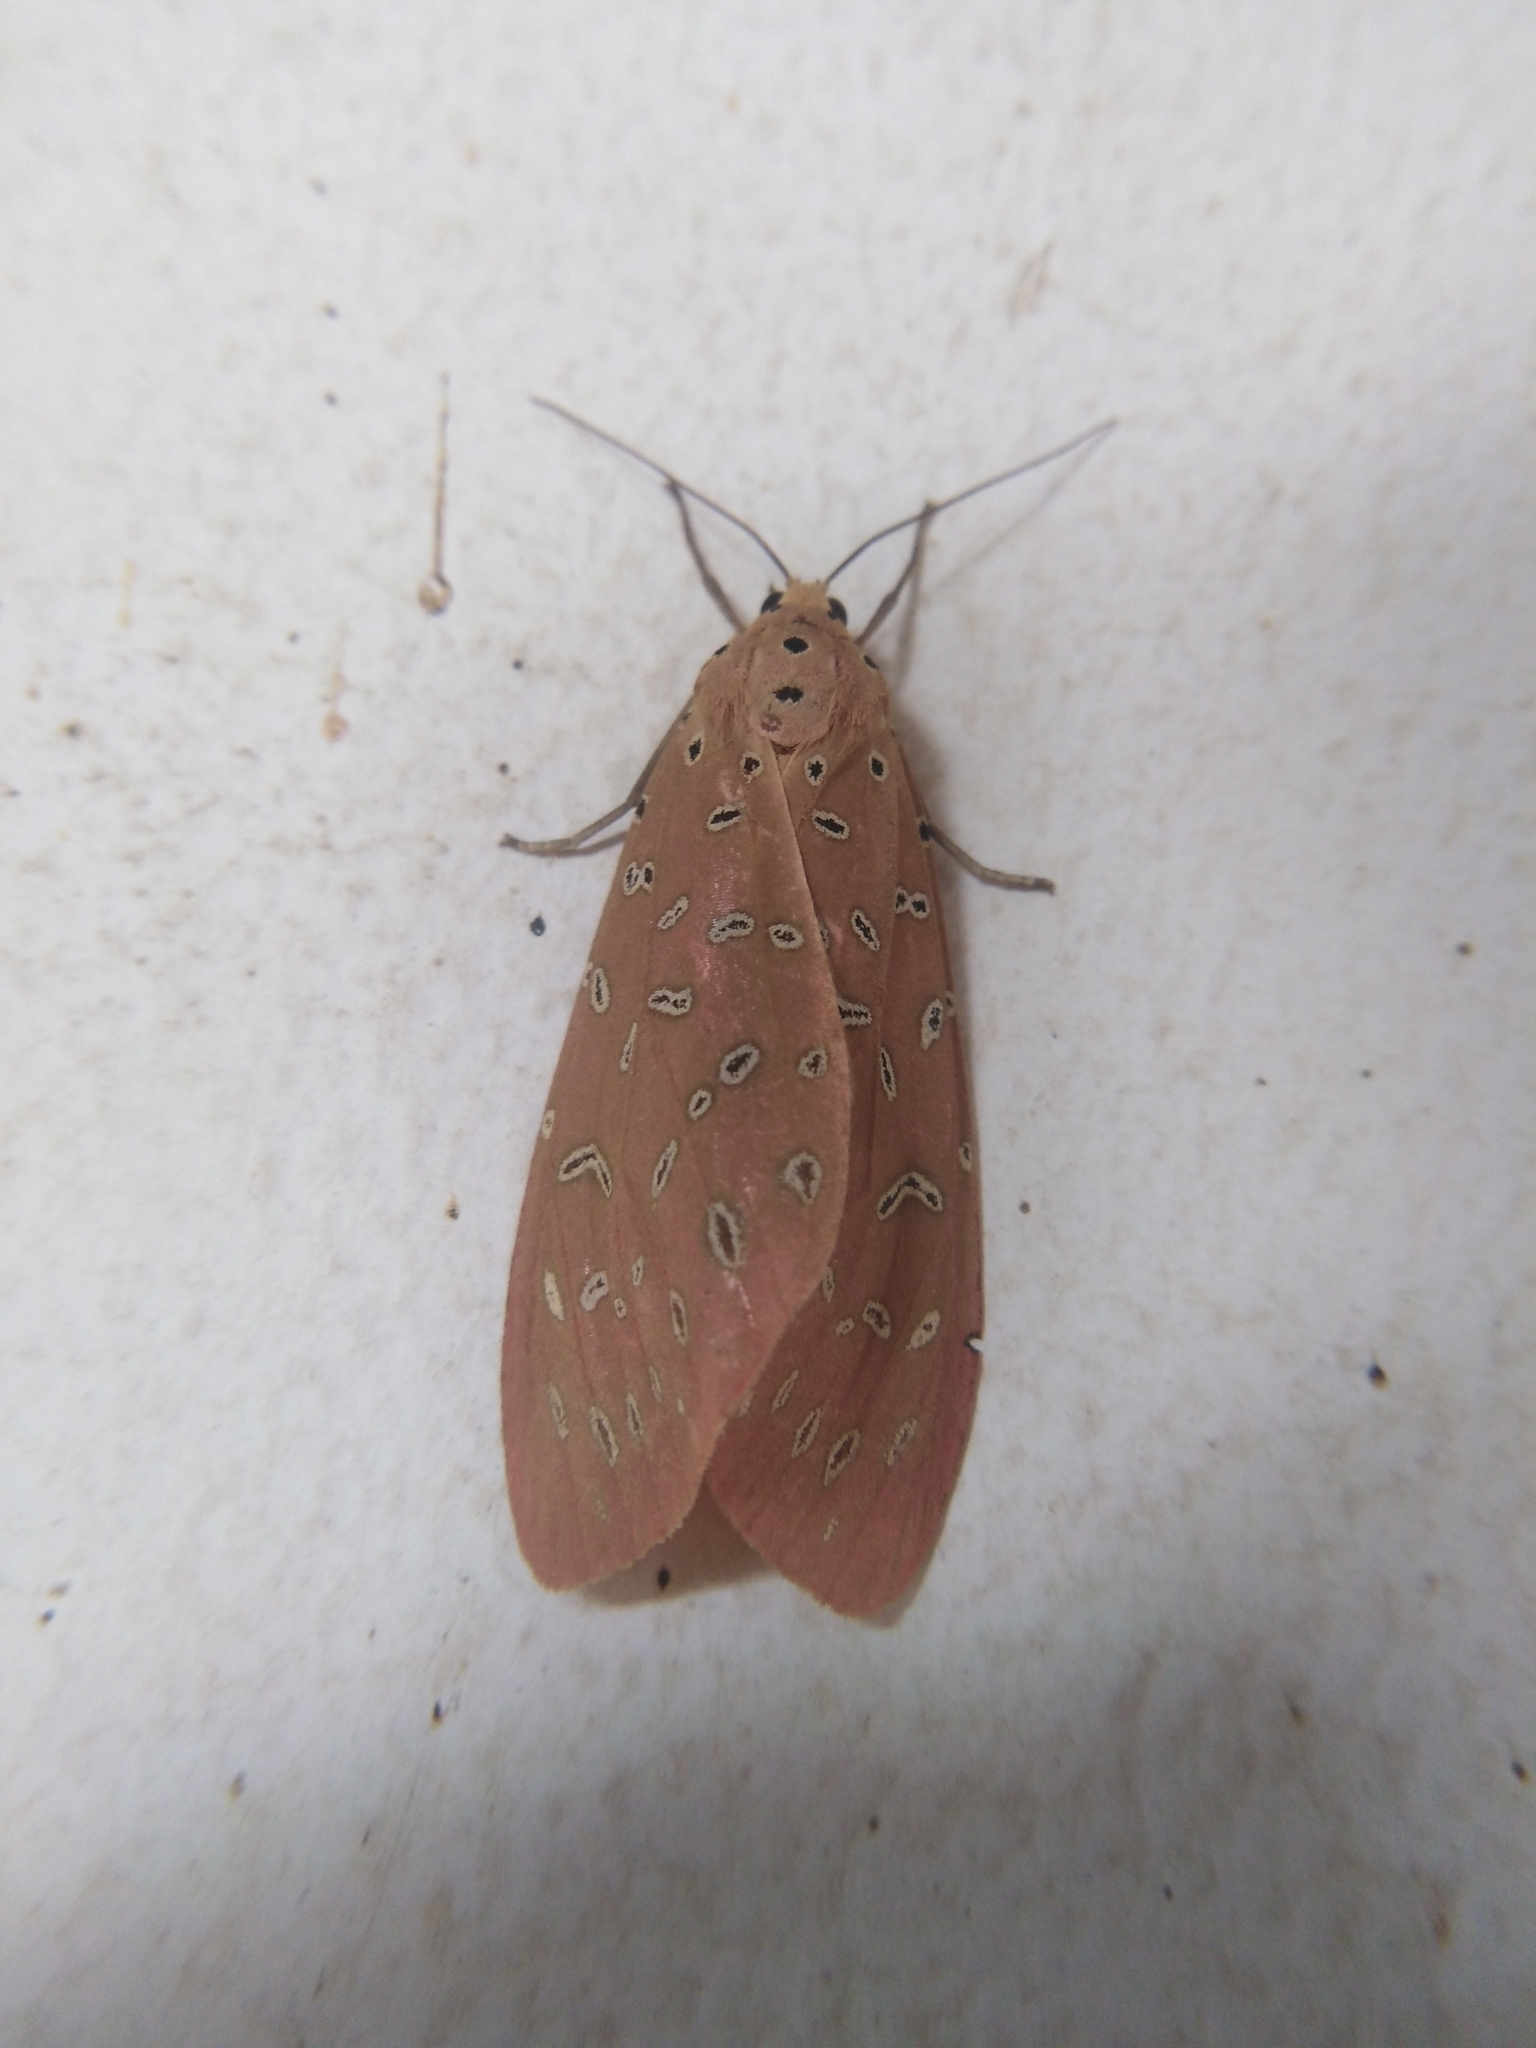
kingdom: Animalia
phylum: Arthropoda
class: Insecta
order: Lepidoptera
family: Erebidae
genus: Mangina
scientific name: Mangina argus
